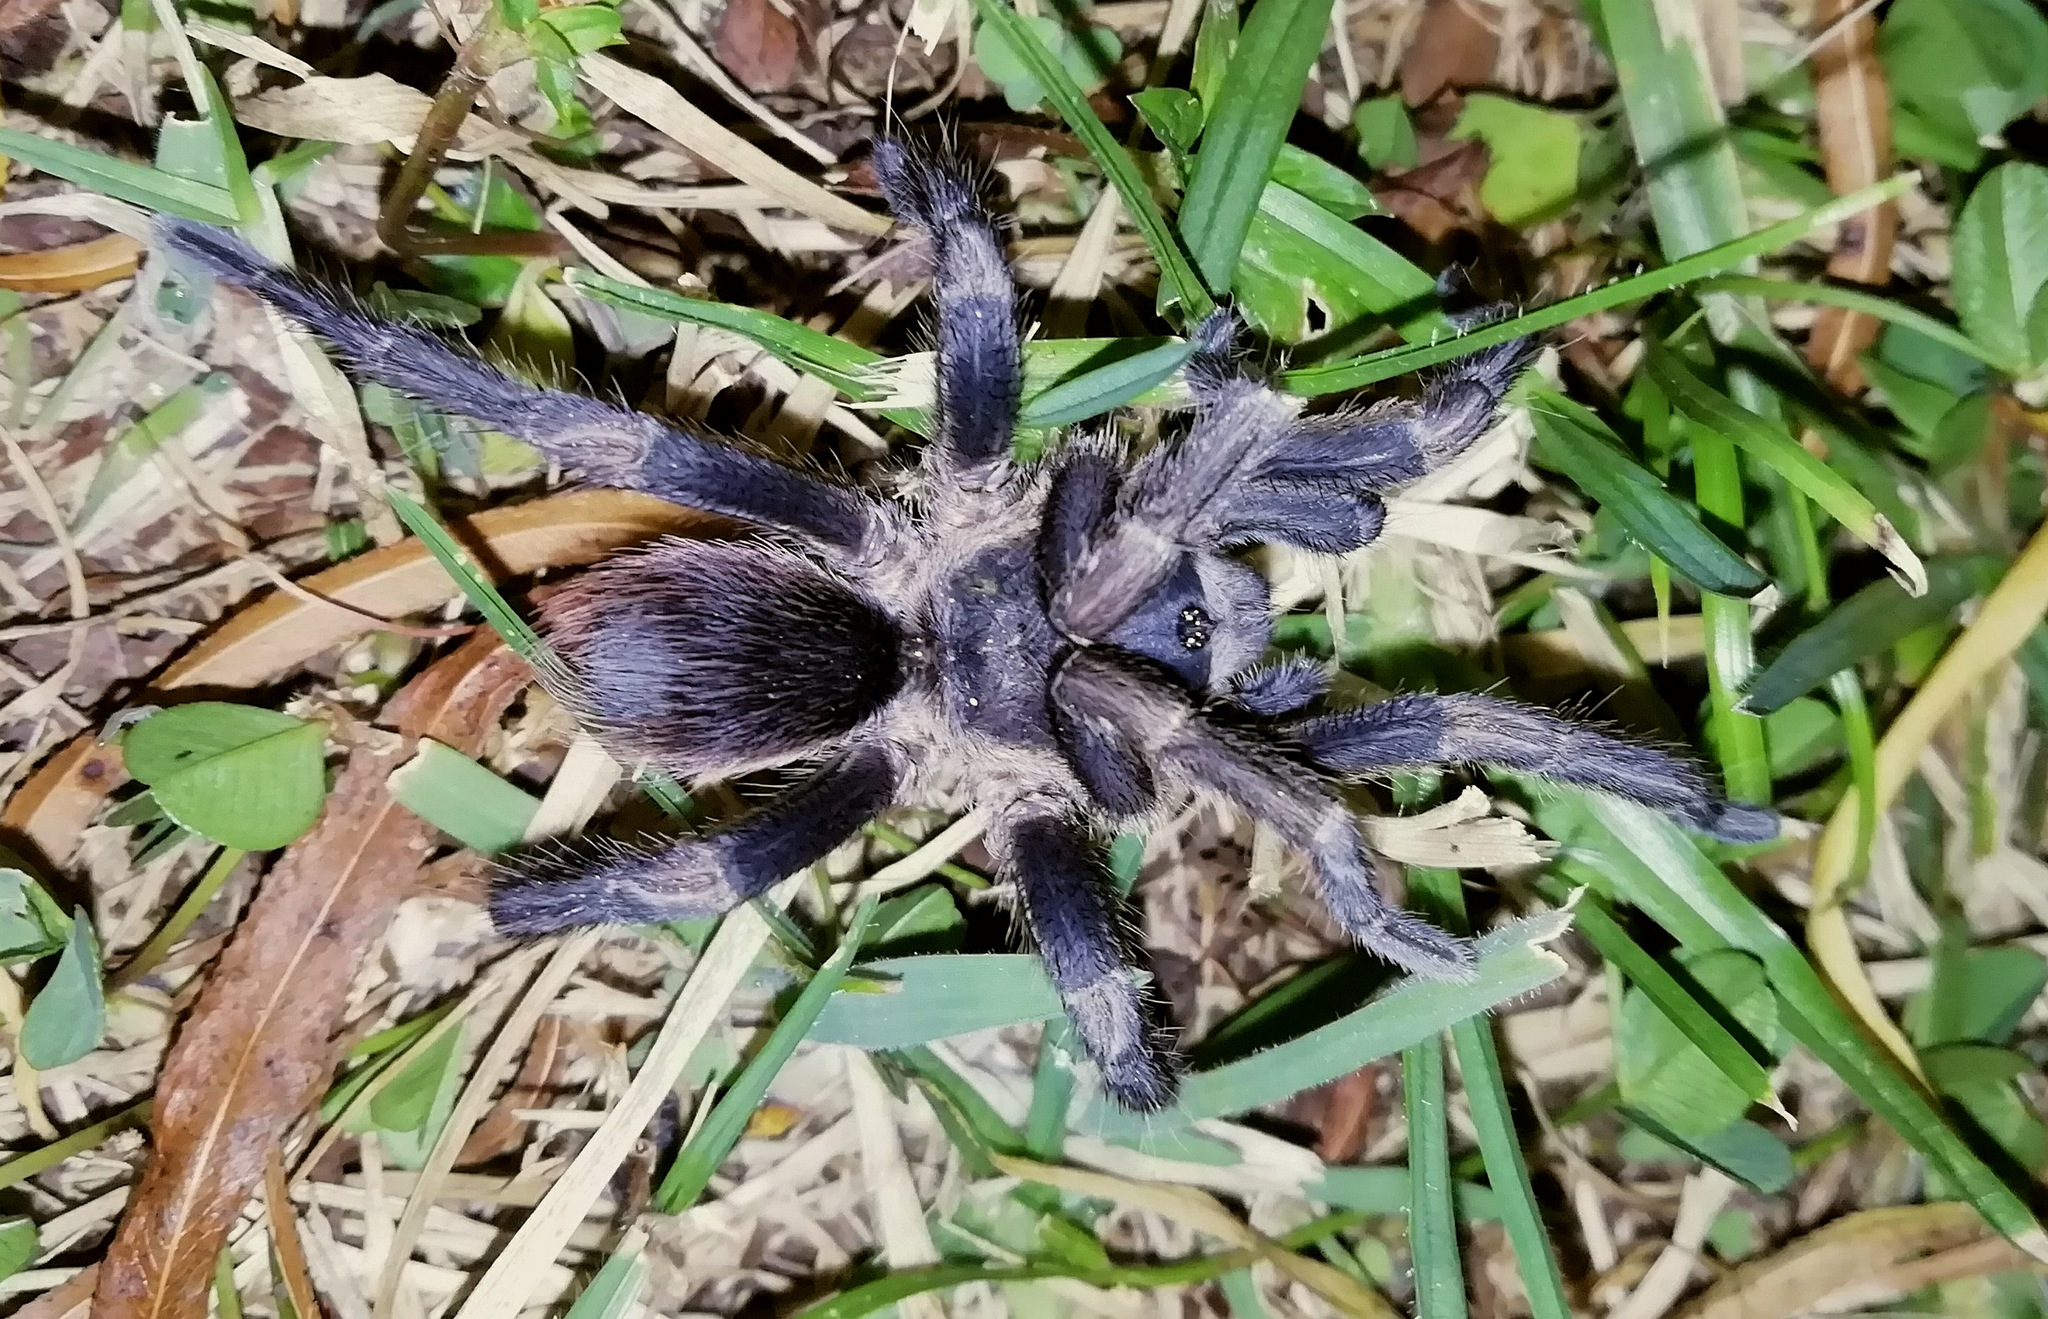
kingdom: Animalia
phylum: Arthropoda
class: Arachnida
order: Araneae
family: Theraphosidae
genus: Cyclosternum
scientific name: Cyclosternum schmardae
